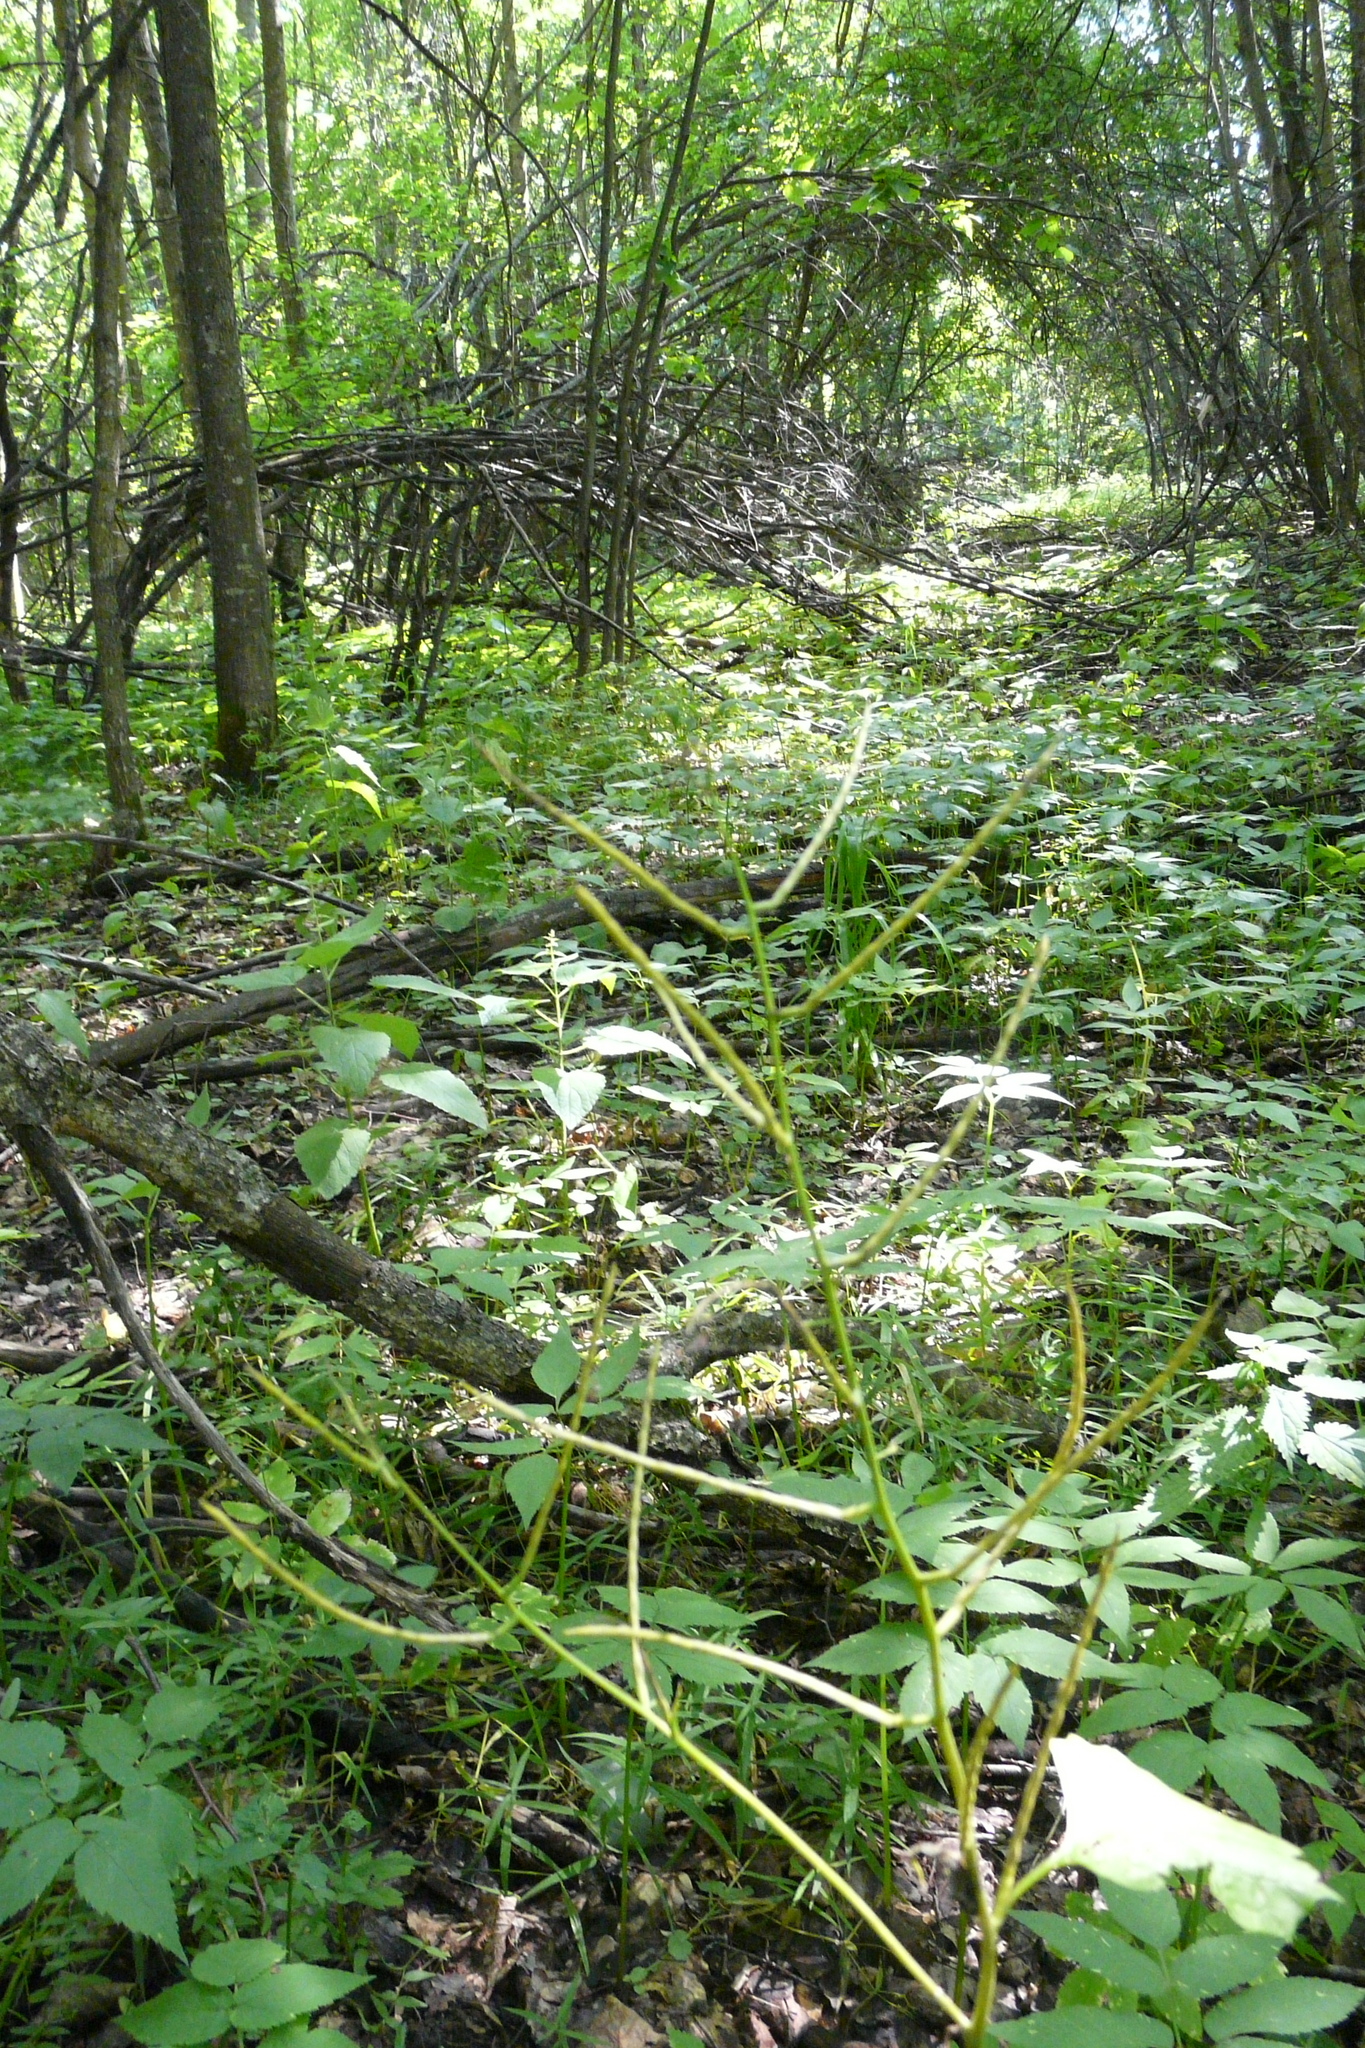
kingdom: Plantae
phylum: Tracheophyta
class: Magnoliopsida
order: Brassicales
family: Brassicaceae
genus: Alliaria
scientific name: Alliaria petiolata
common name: Garlic mustard
